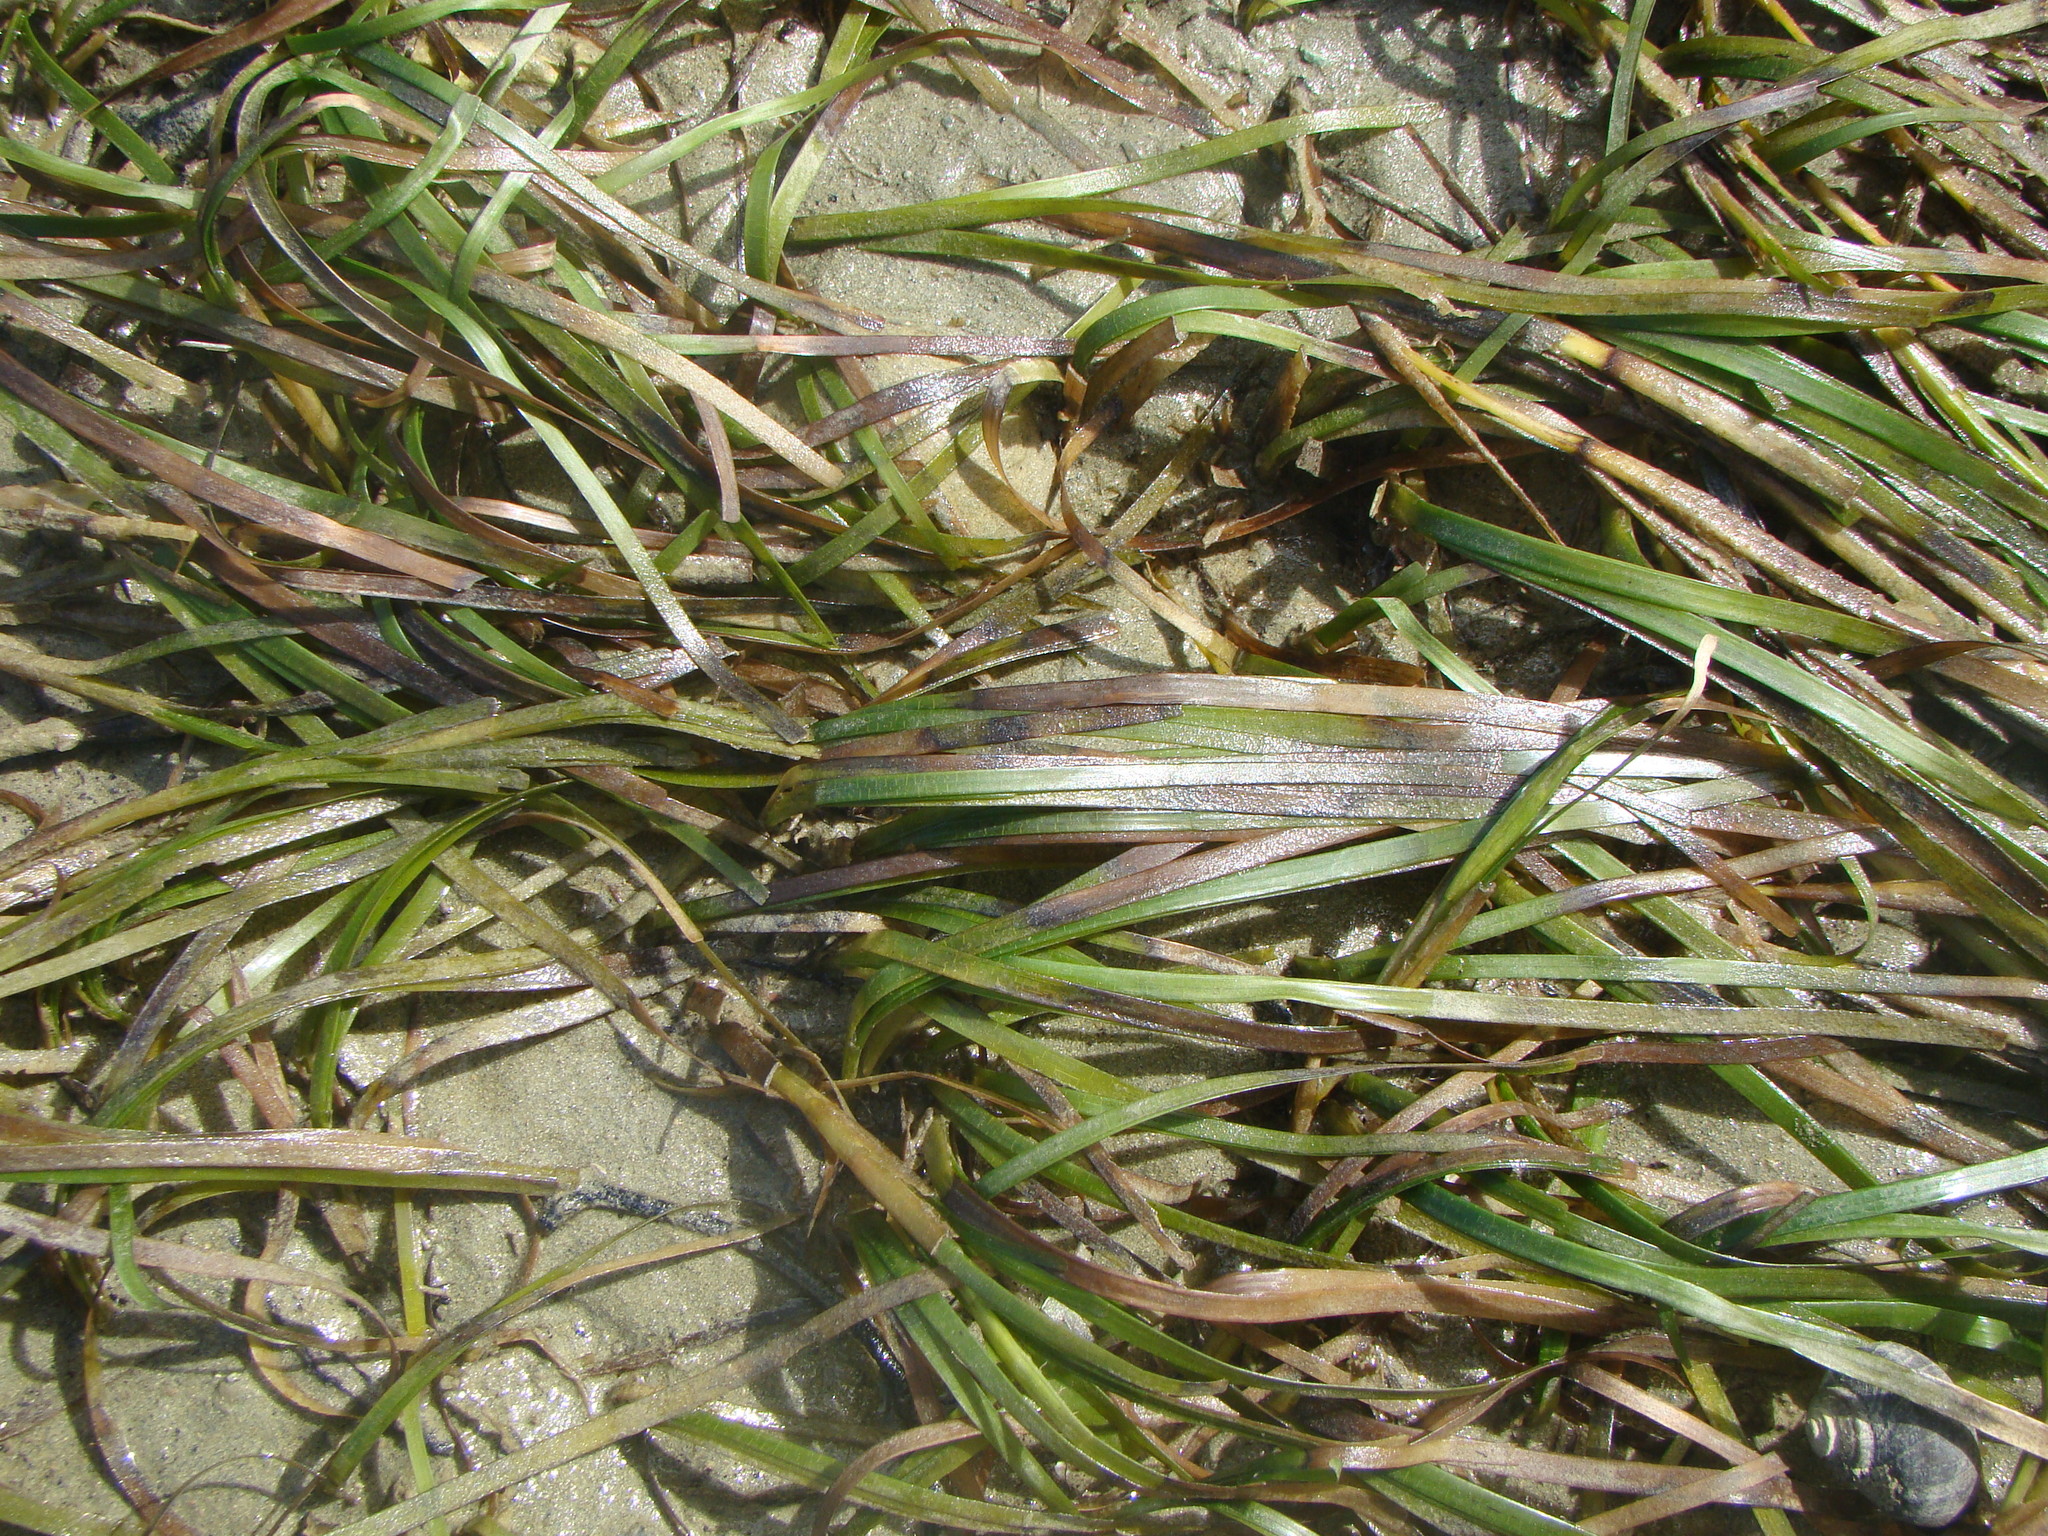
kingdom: Plantae
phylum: Tracheophyta
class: Liliopsida
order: Alismatales
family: Zosteraceae
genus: Zostera
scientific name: Zostera novazelandica
